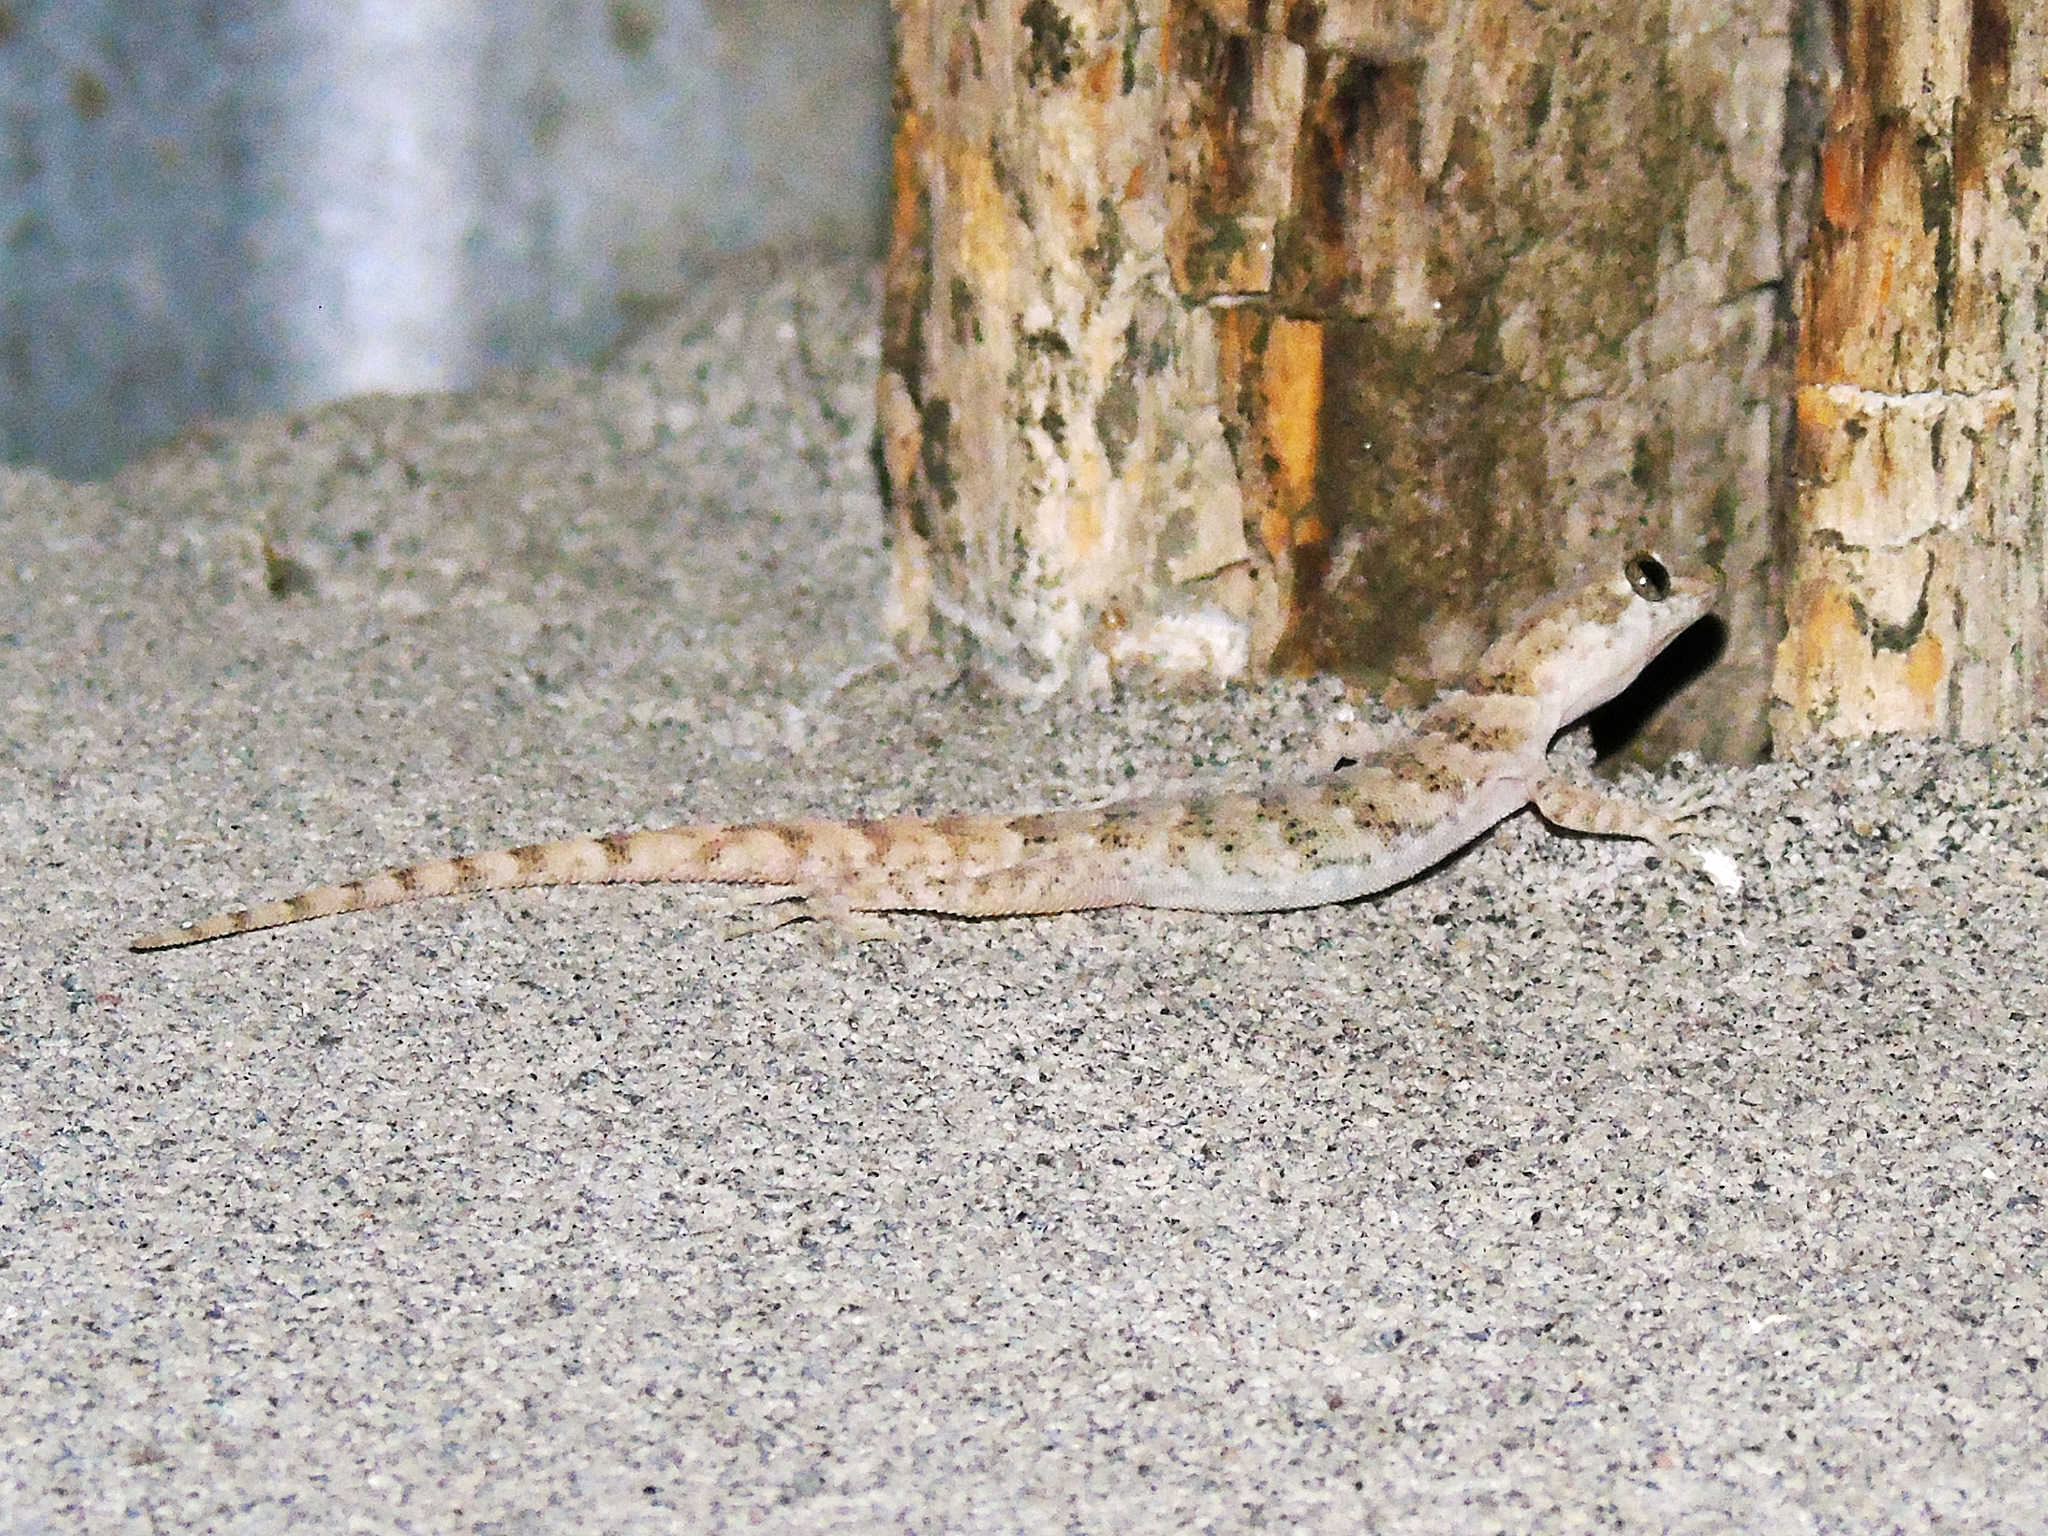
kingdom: Animalia
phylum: Chordata
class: Squamata
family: Gekkonidae
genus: Altiphylax
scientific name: Altiphylax stoliczkai
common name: Frontier bow-fingered gecko
